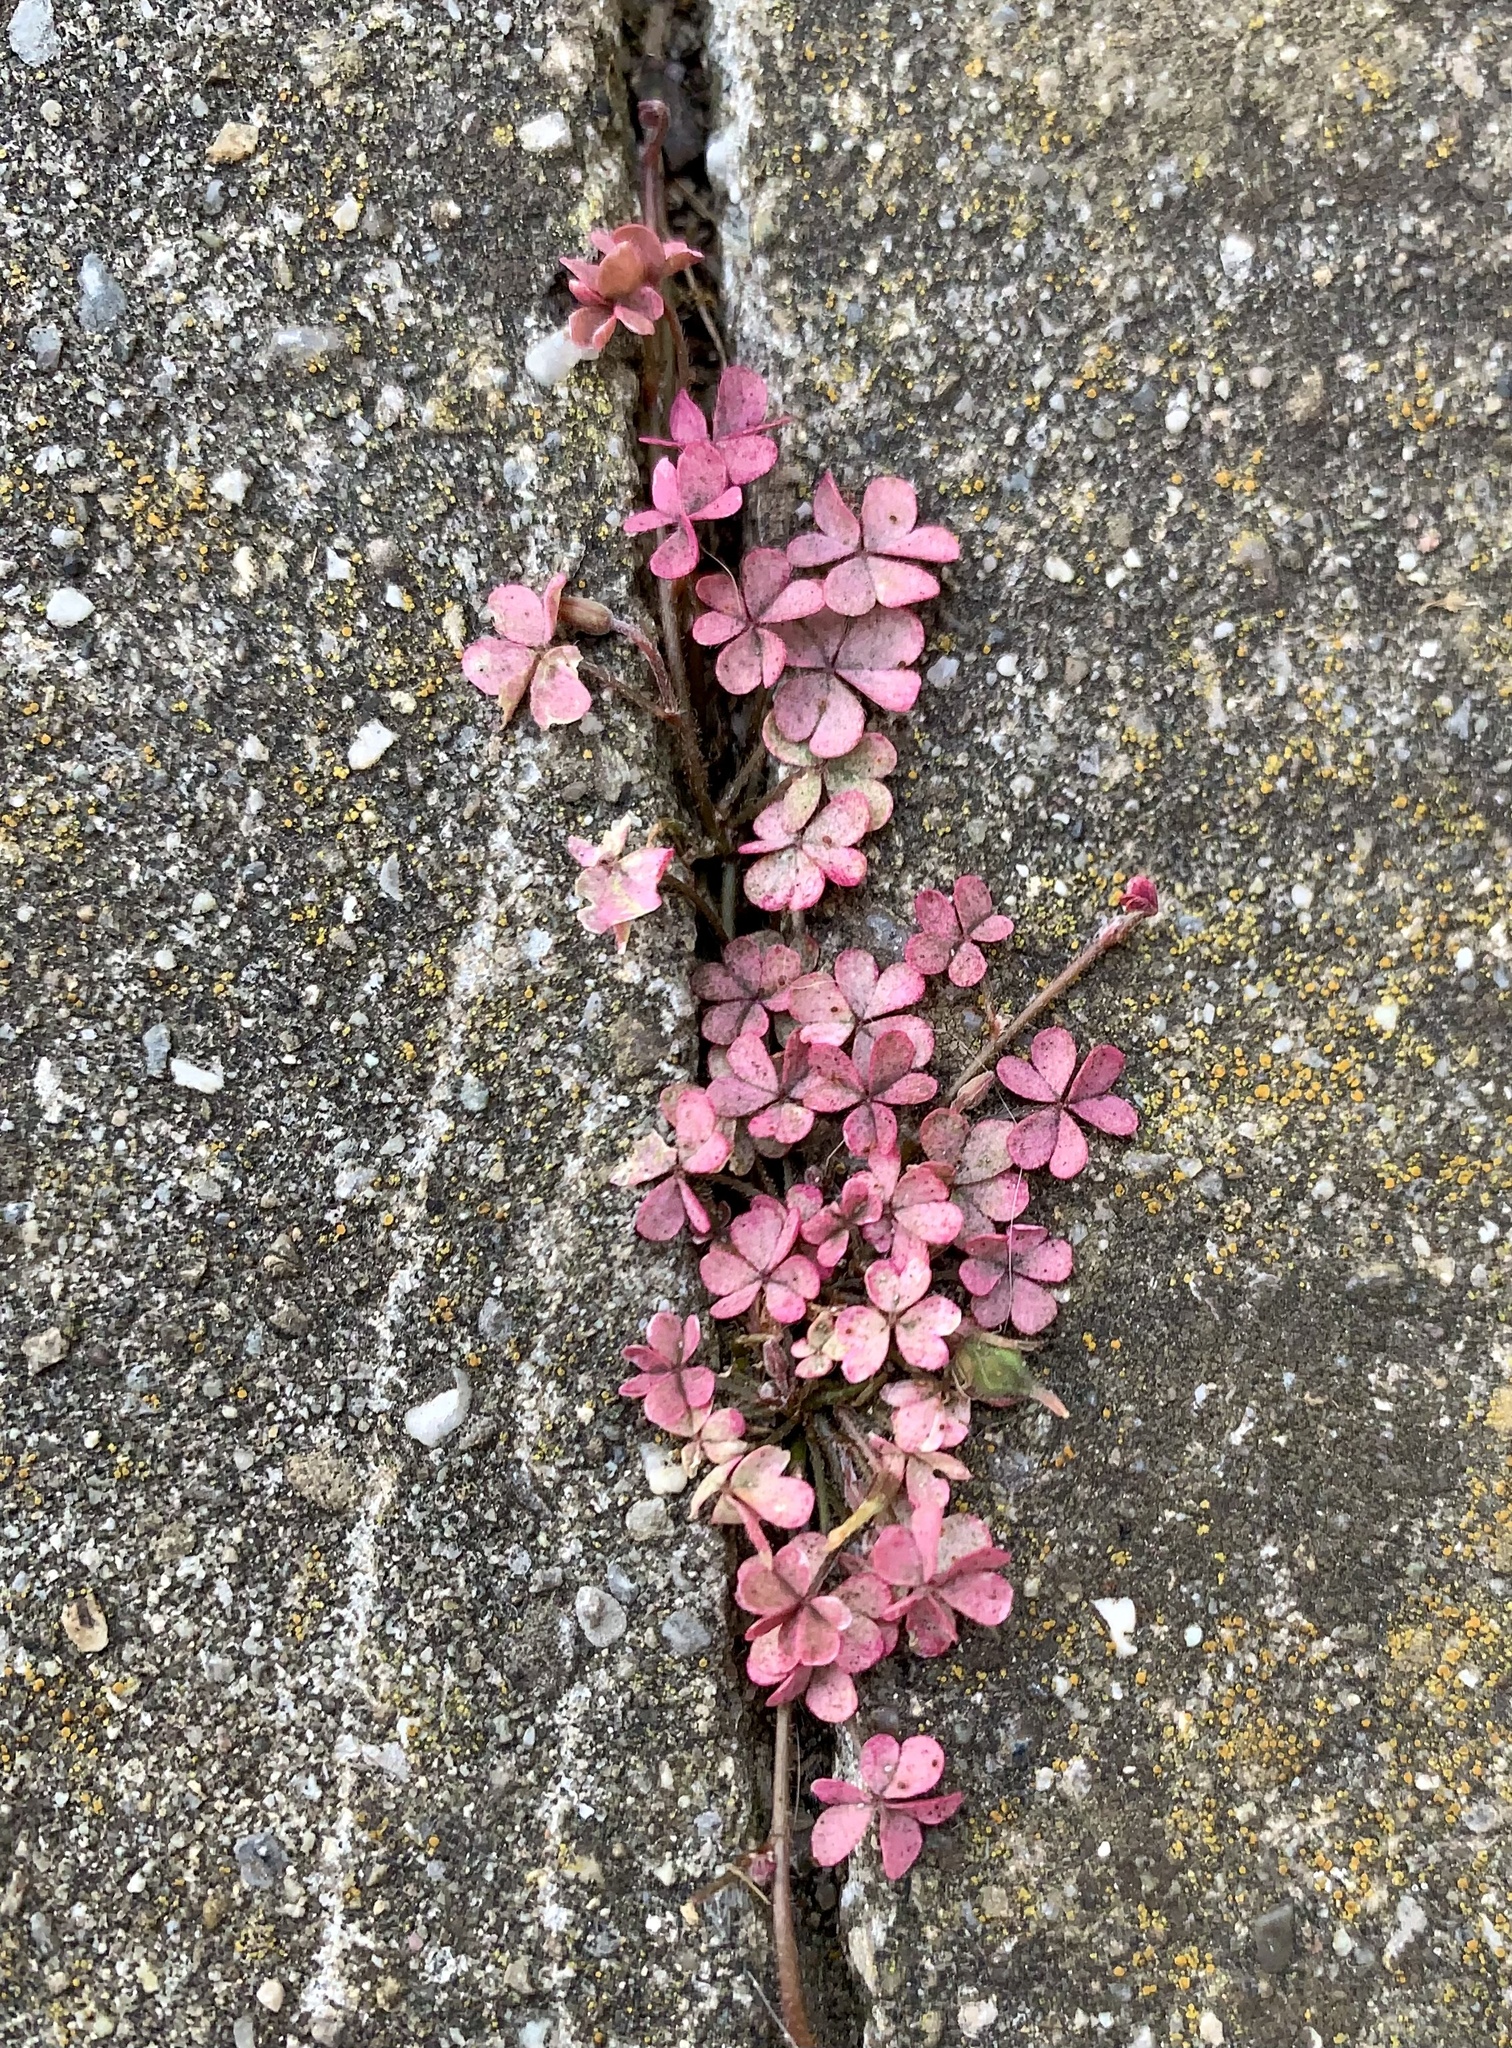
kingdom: Plantae
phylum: Tracheophyta
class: Magnoliopsida
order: Oxalidales
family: Oxalidaceae
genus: Oxalis
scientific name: Oxalis corniculata
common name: Procumbent yellow-sorrel
